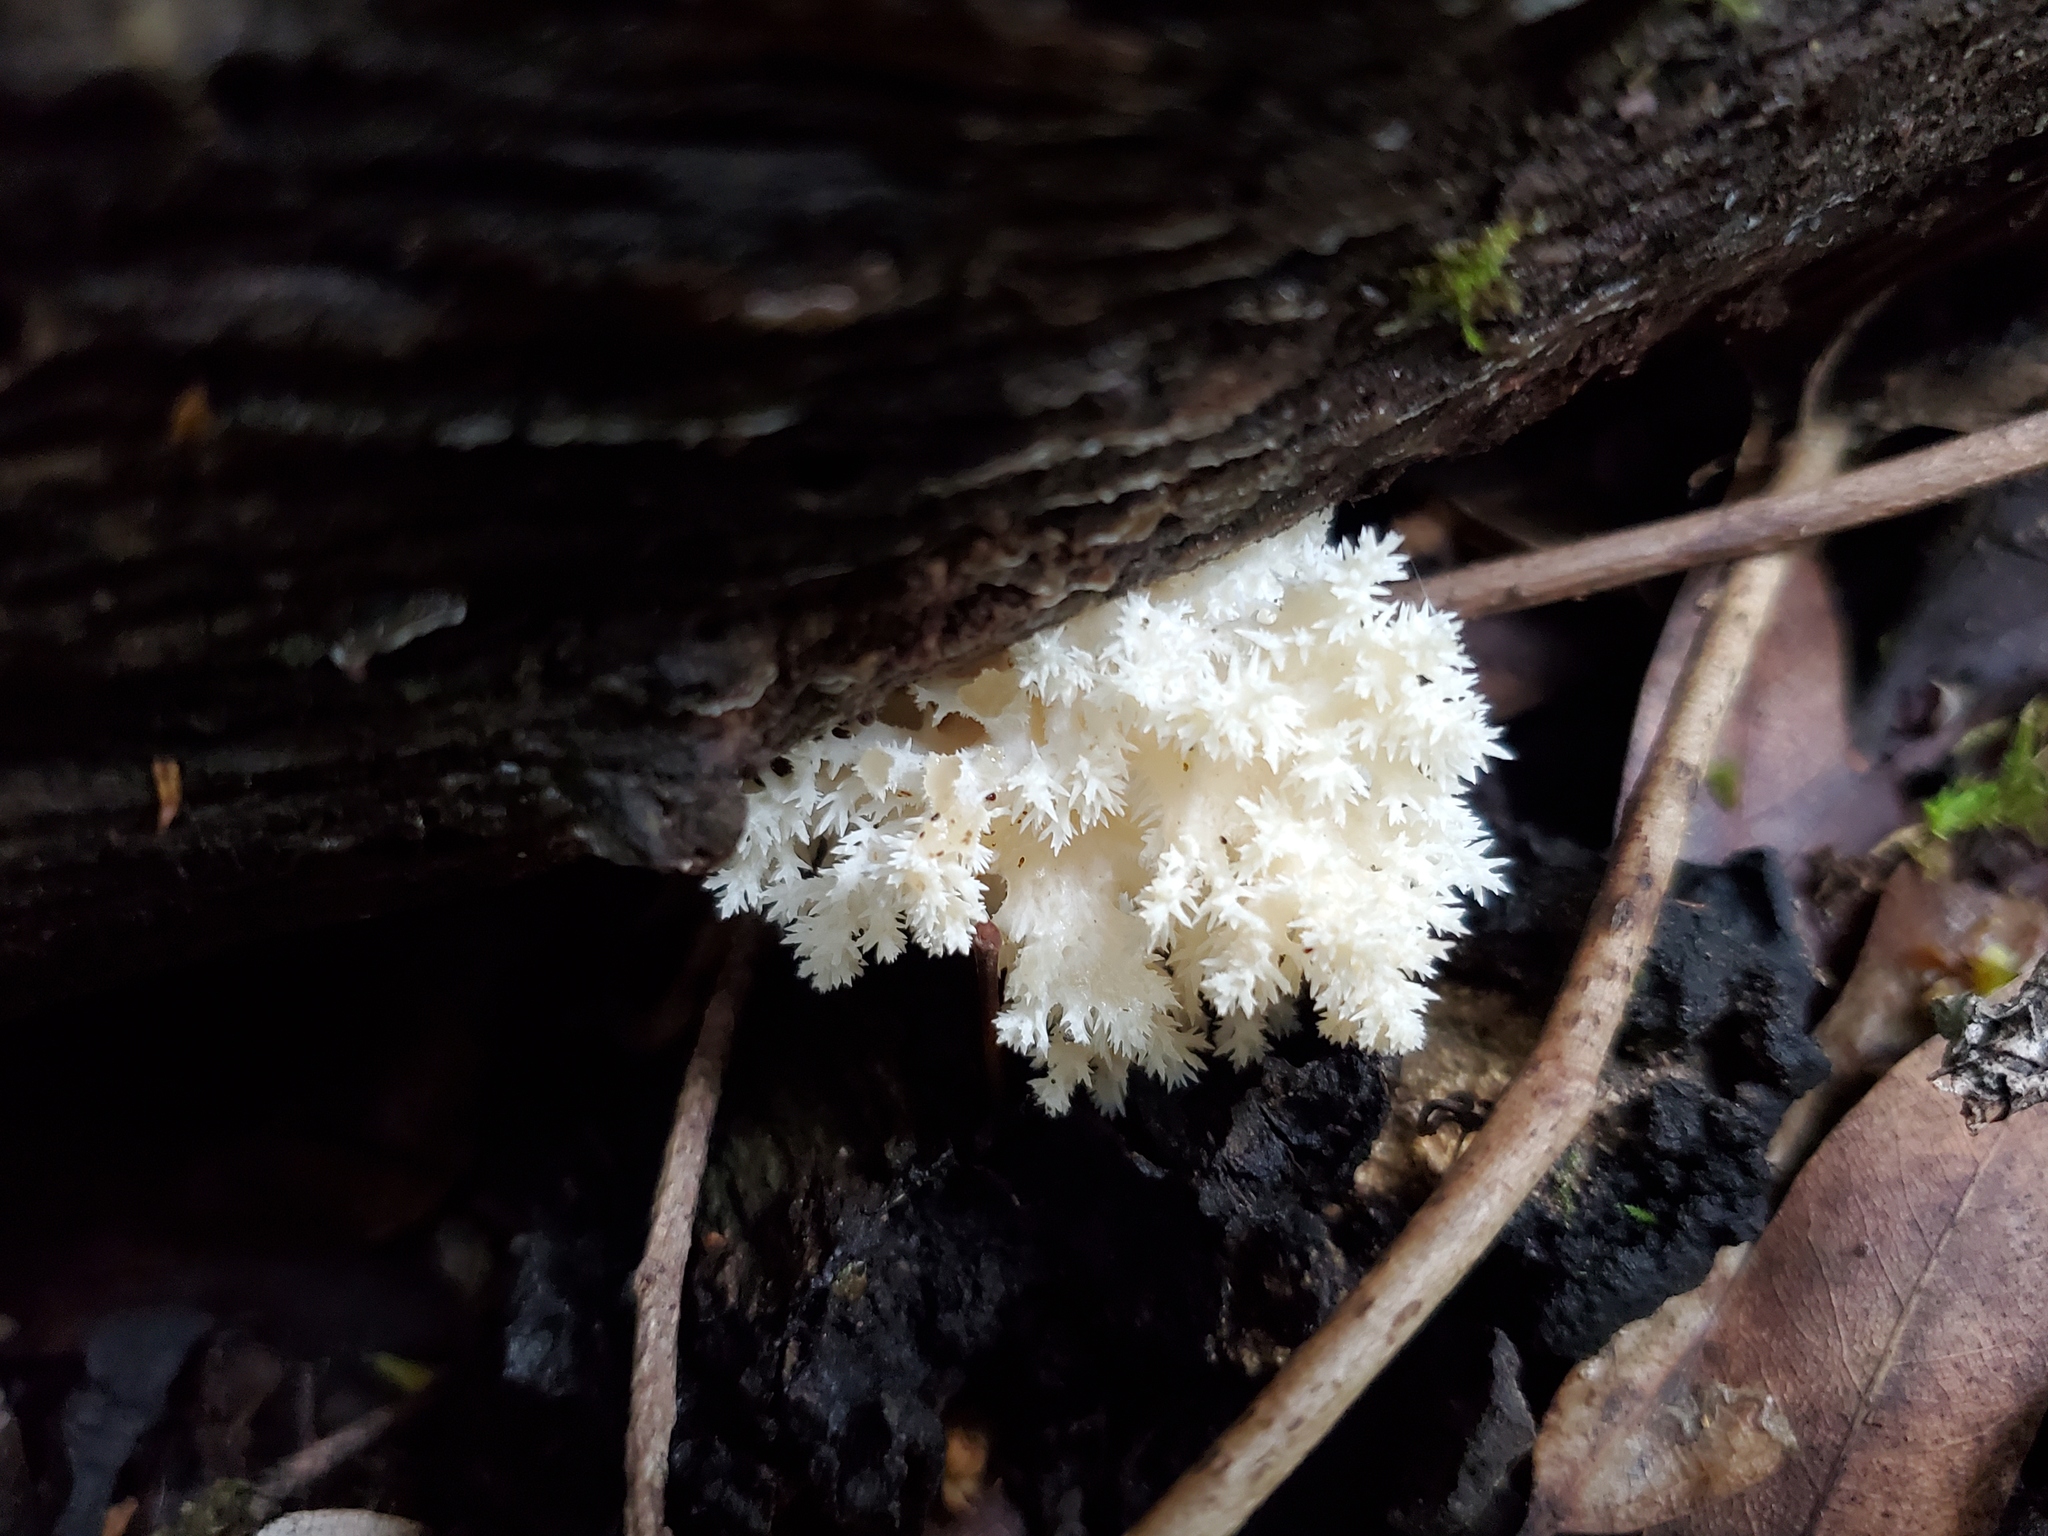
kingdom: Fungi
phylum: Basidiomycota
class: Agaricomycetes
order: Russulales
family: Hericiaceae
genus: Hericium
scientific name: Hericium coralloides
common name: Coral tooth
